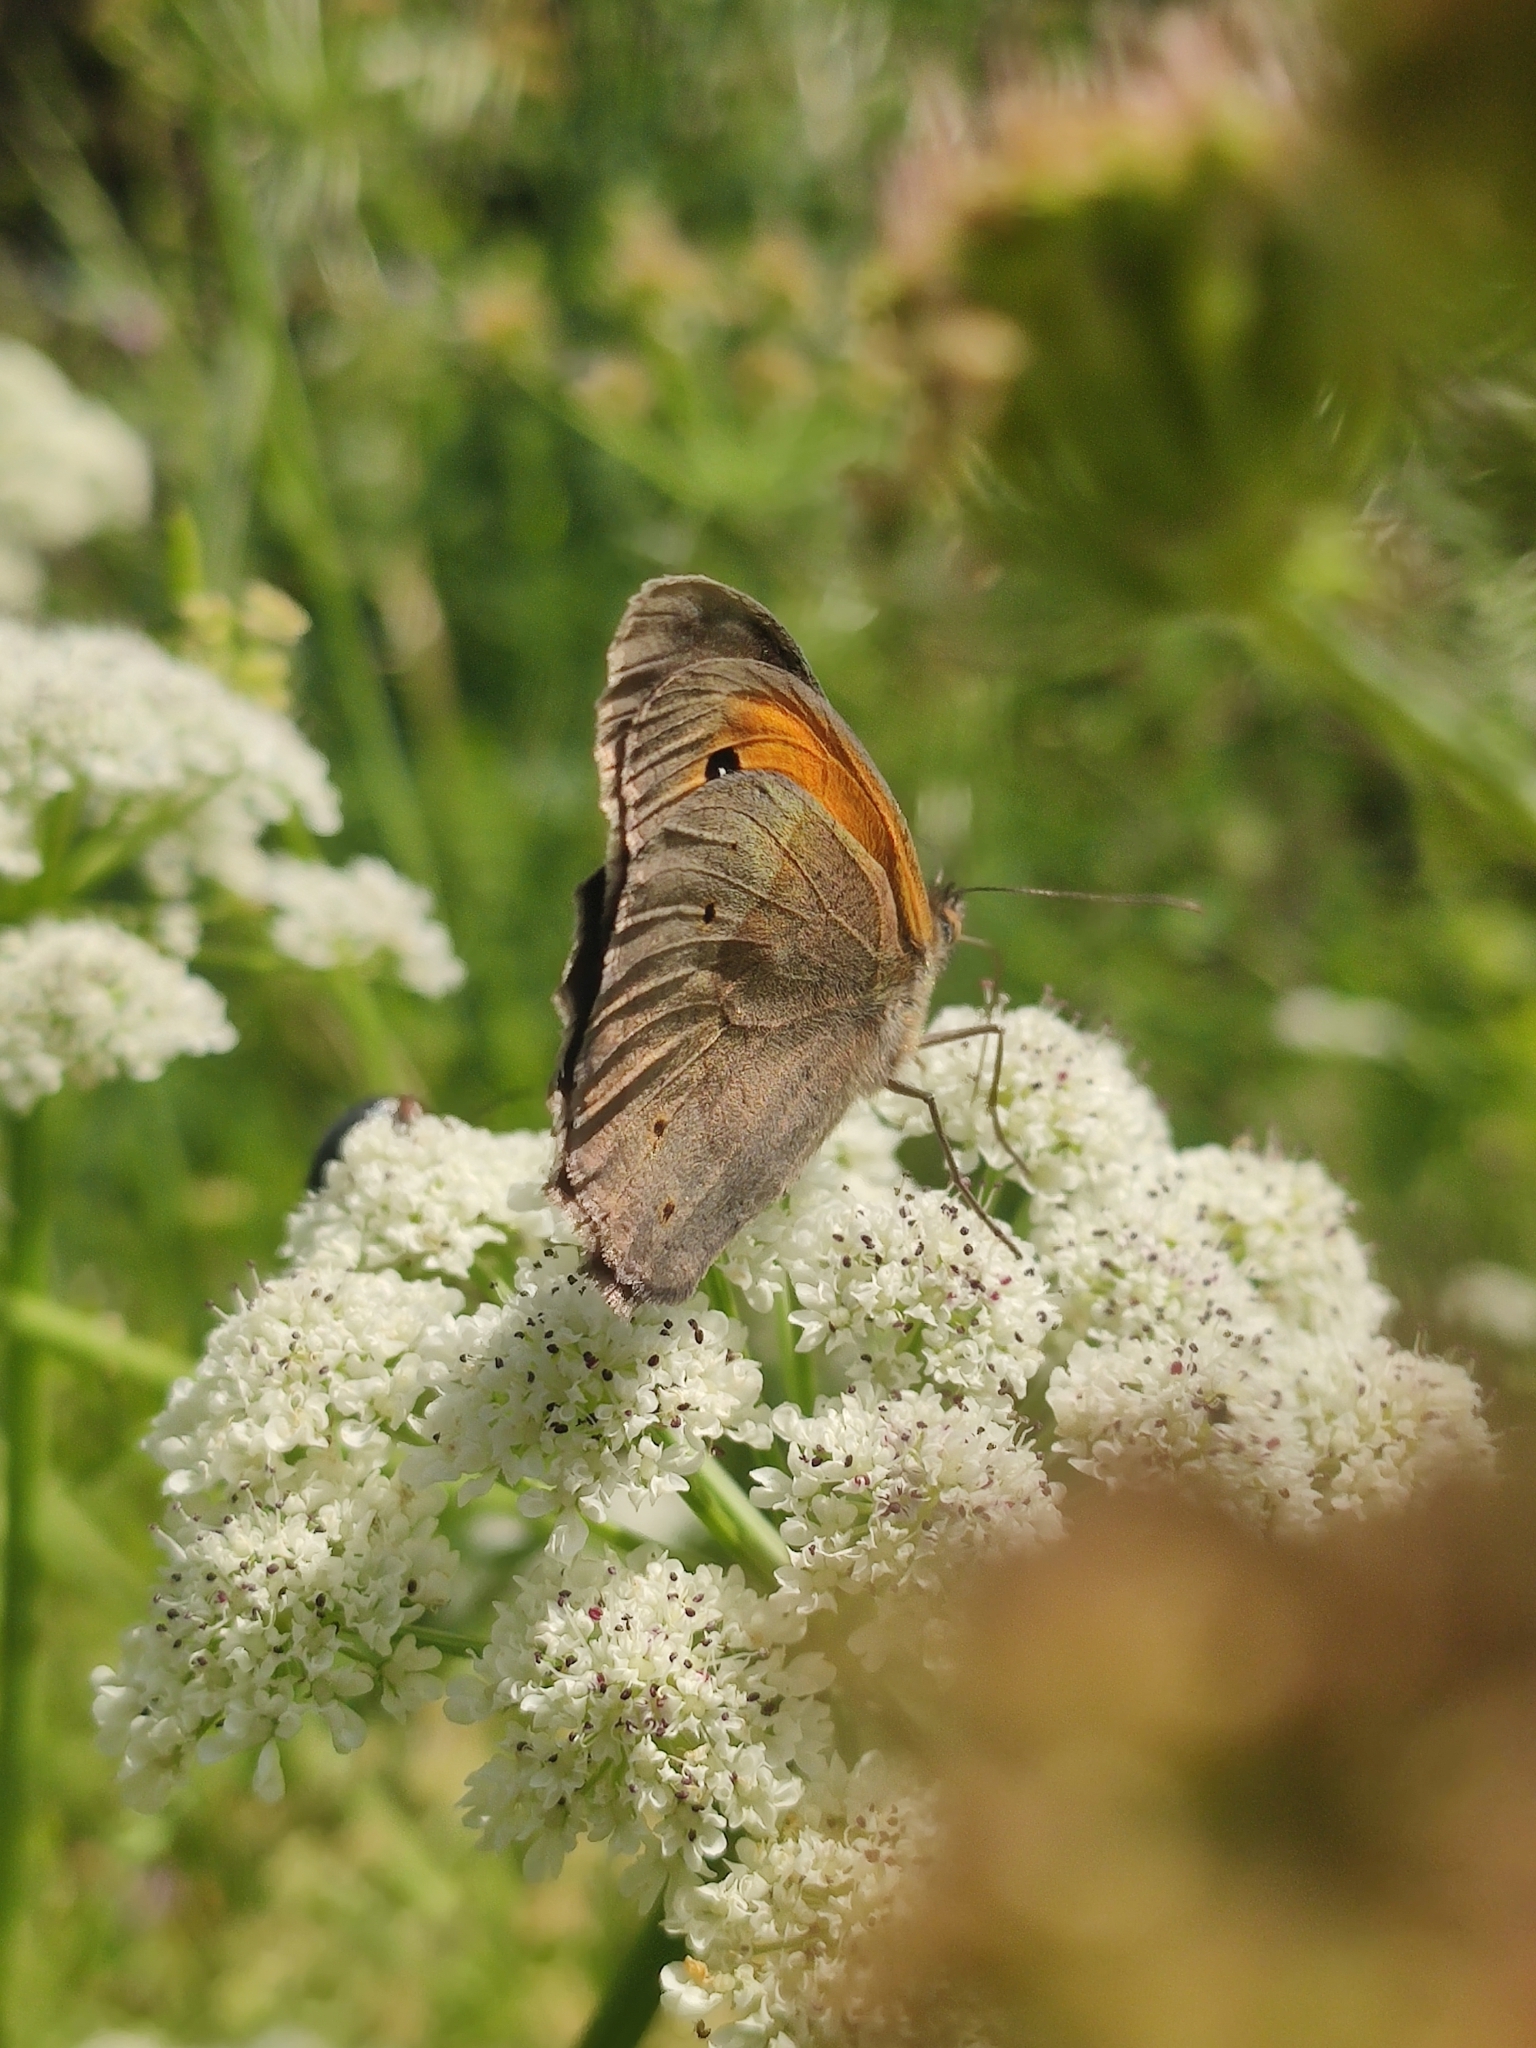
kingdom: Animalia
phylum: Arthropoda
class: Insecta
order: Lepidoptera
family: Nymphalidae
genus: Maniola
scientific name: Maniola jurtina
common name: Meadow brown
